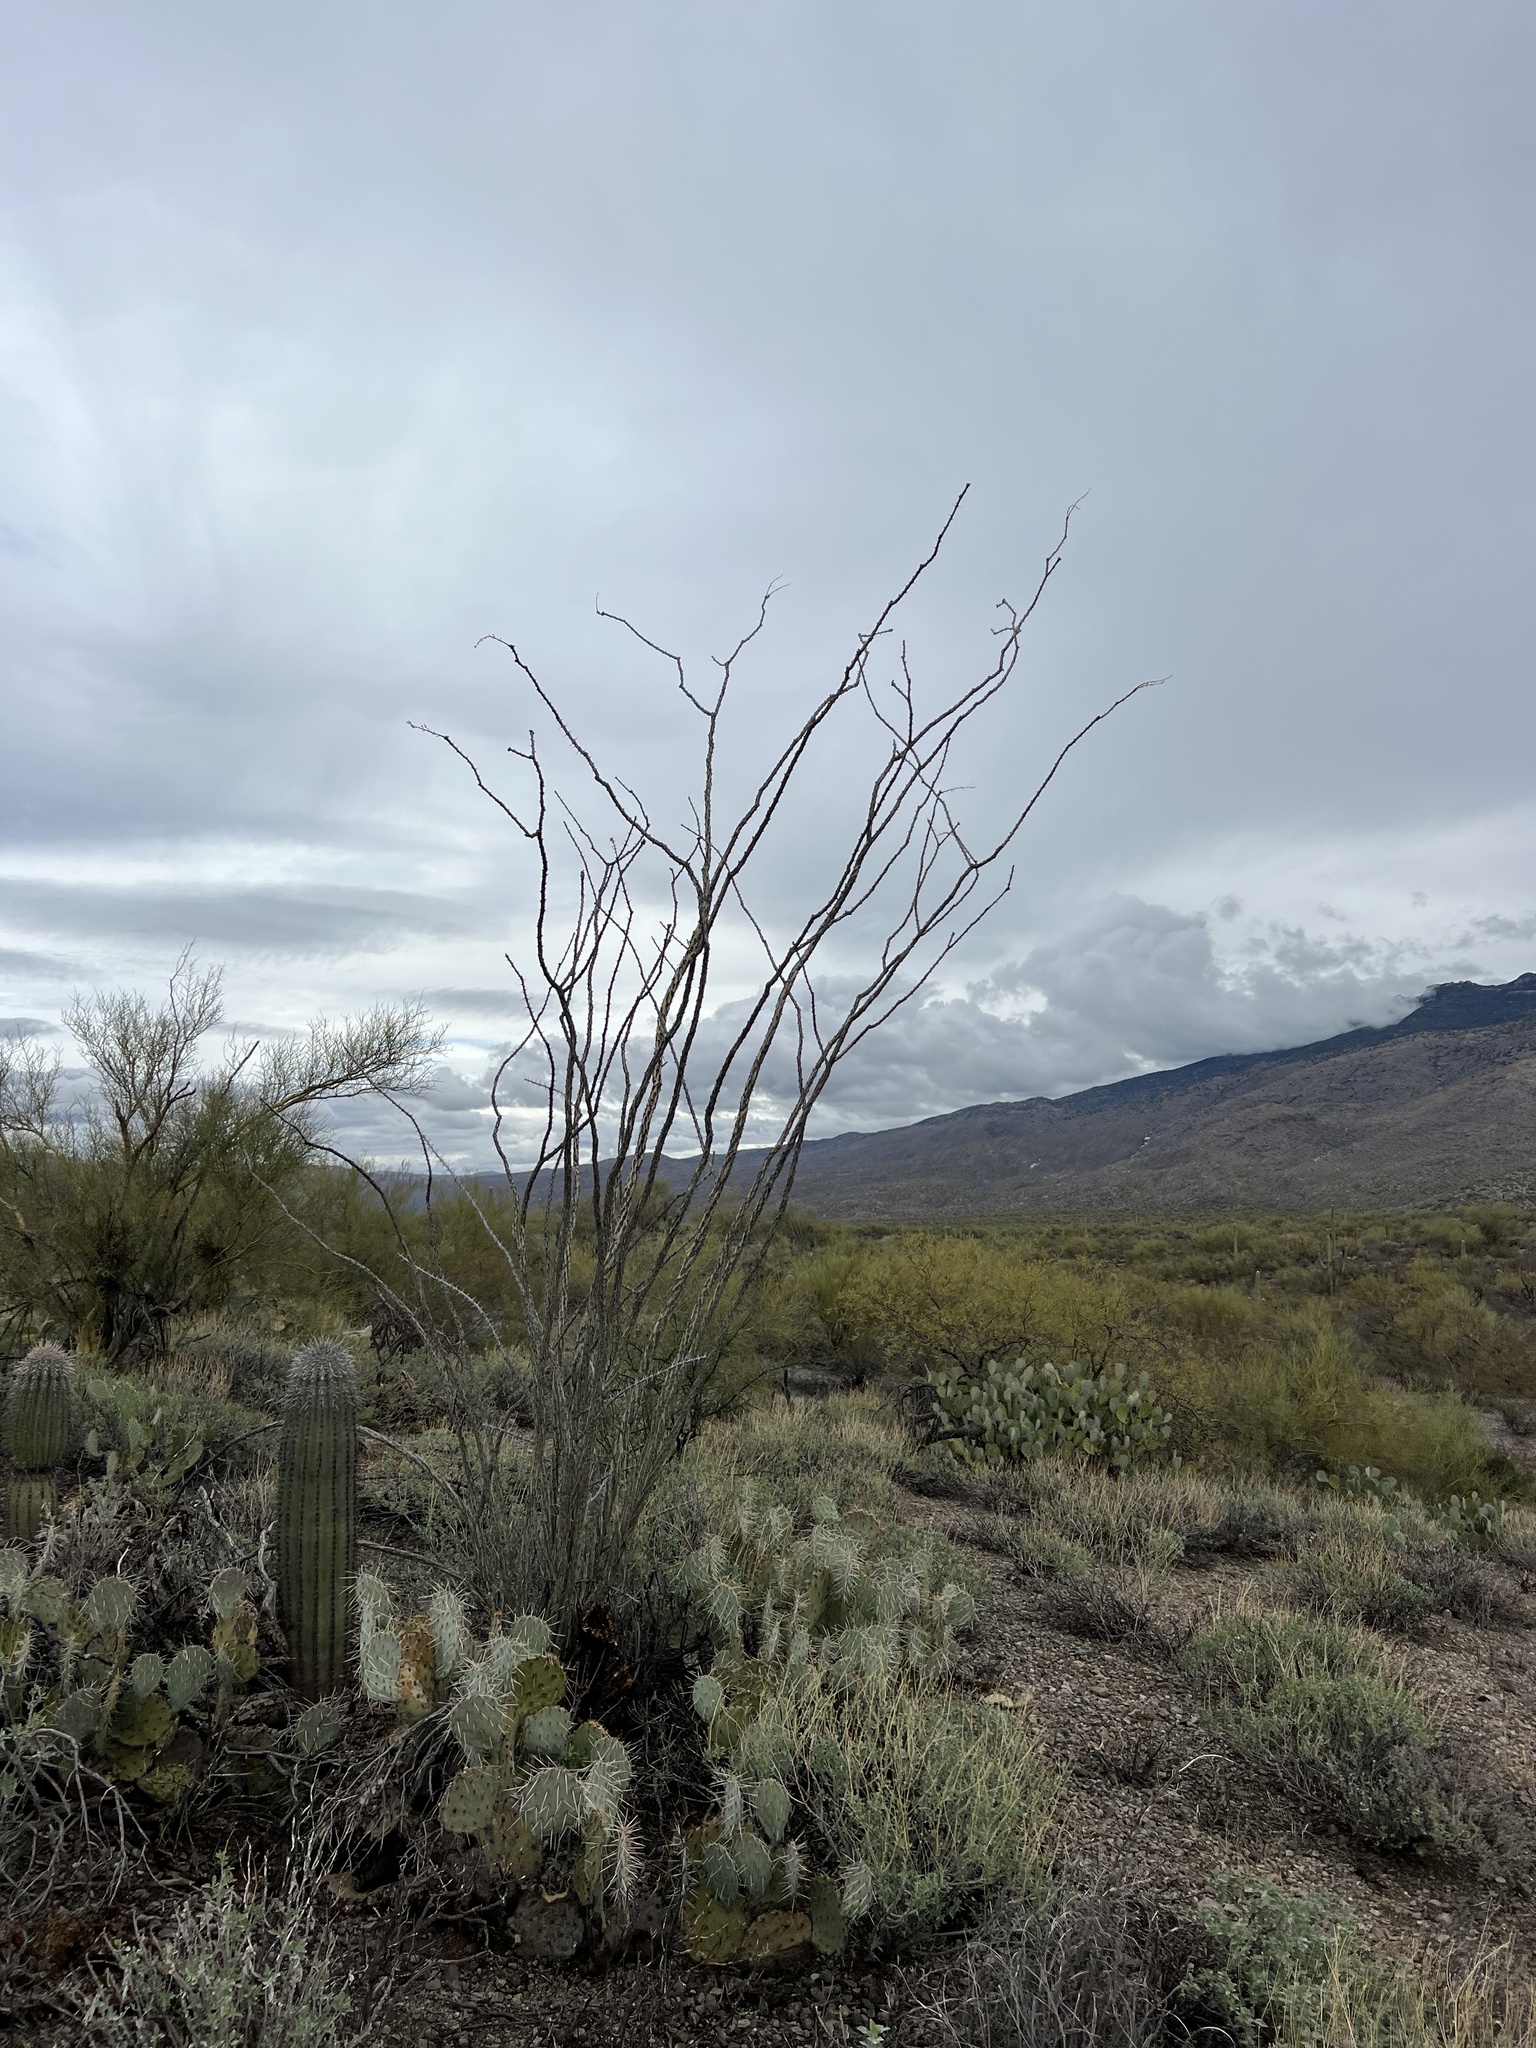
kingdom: Plantae
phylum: Tracheophyta
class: Magnoliopsida
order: Ericales
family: Fouquieriaceae
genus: Fouquieria
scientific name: Fouquieria splendens
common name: Vine-cactus
